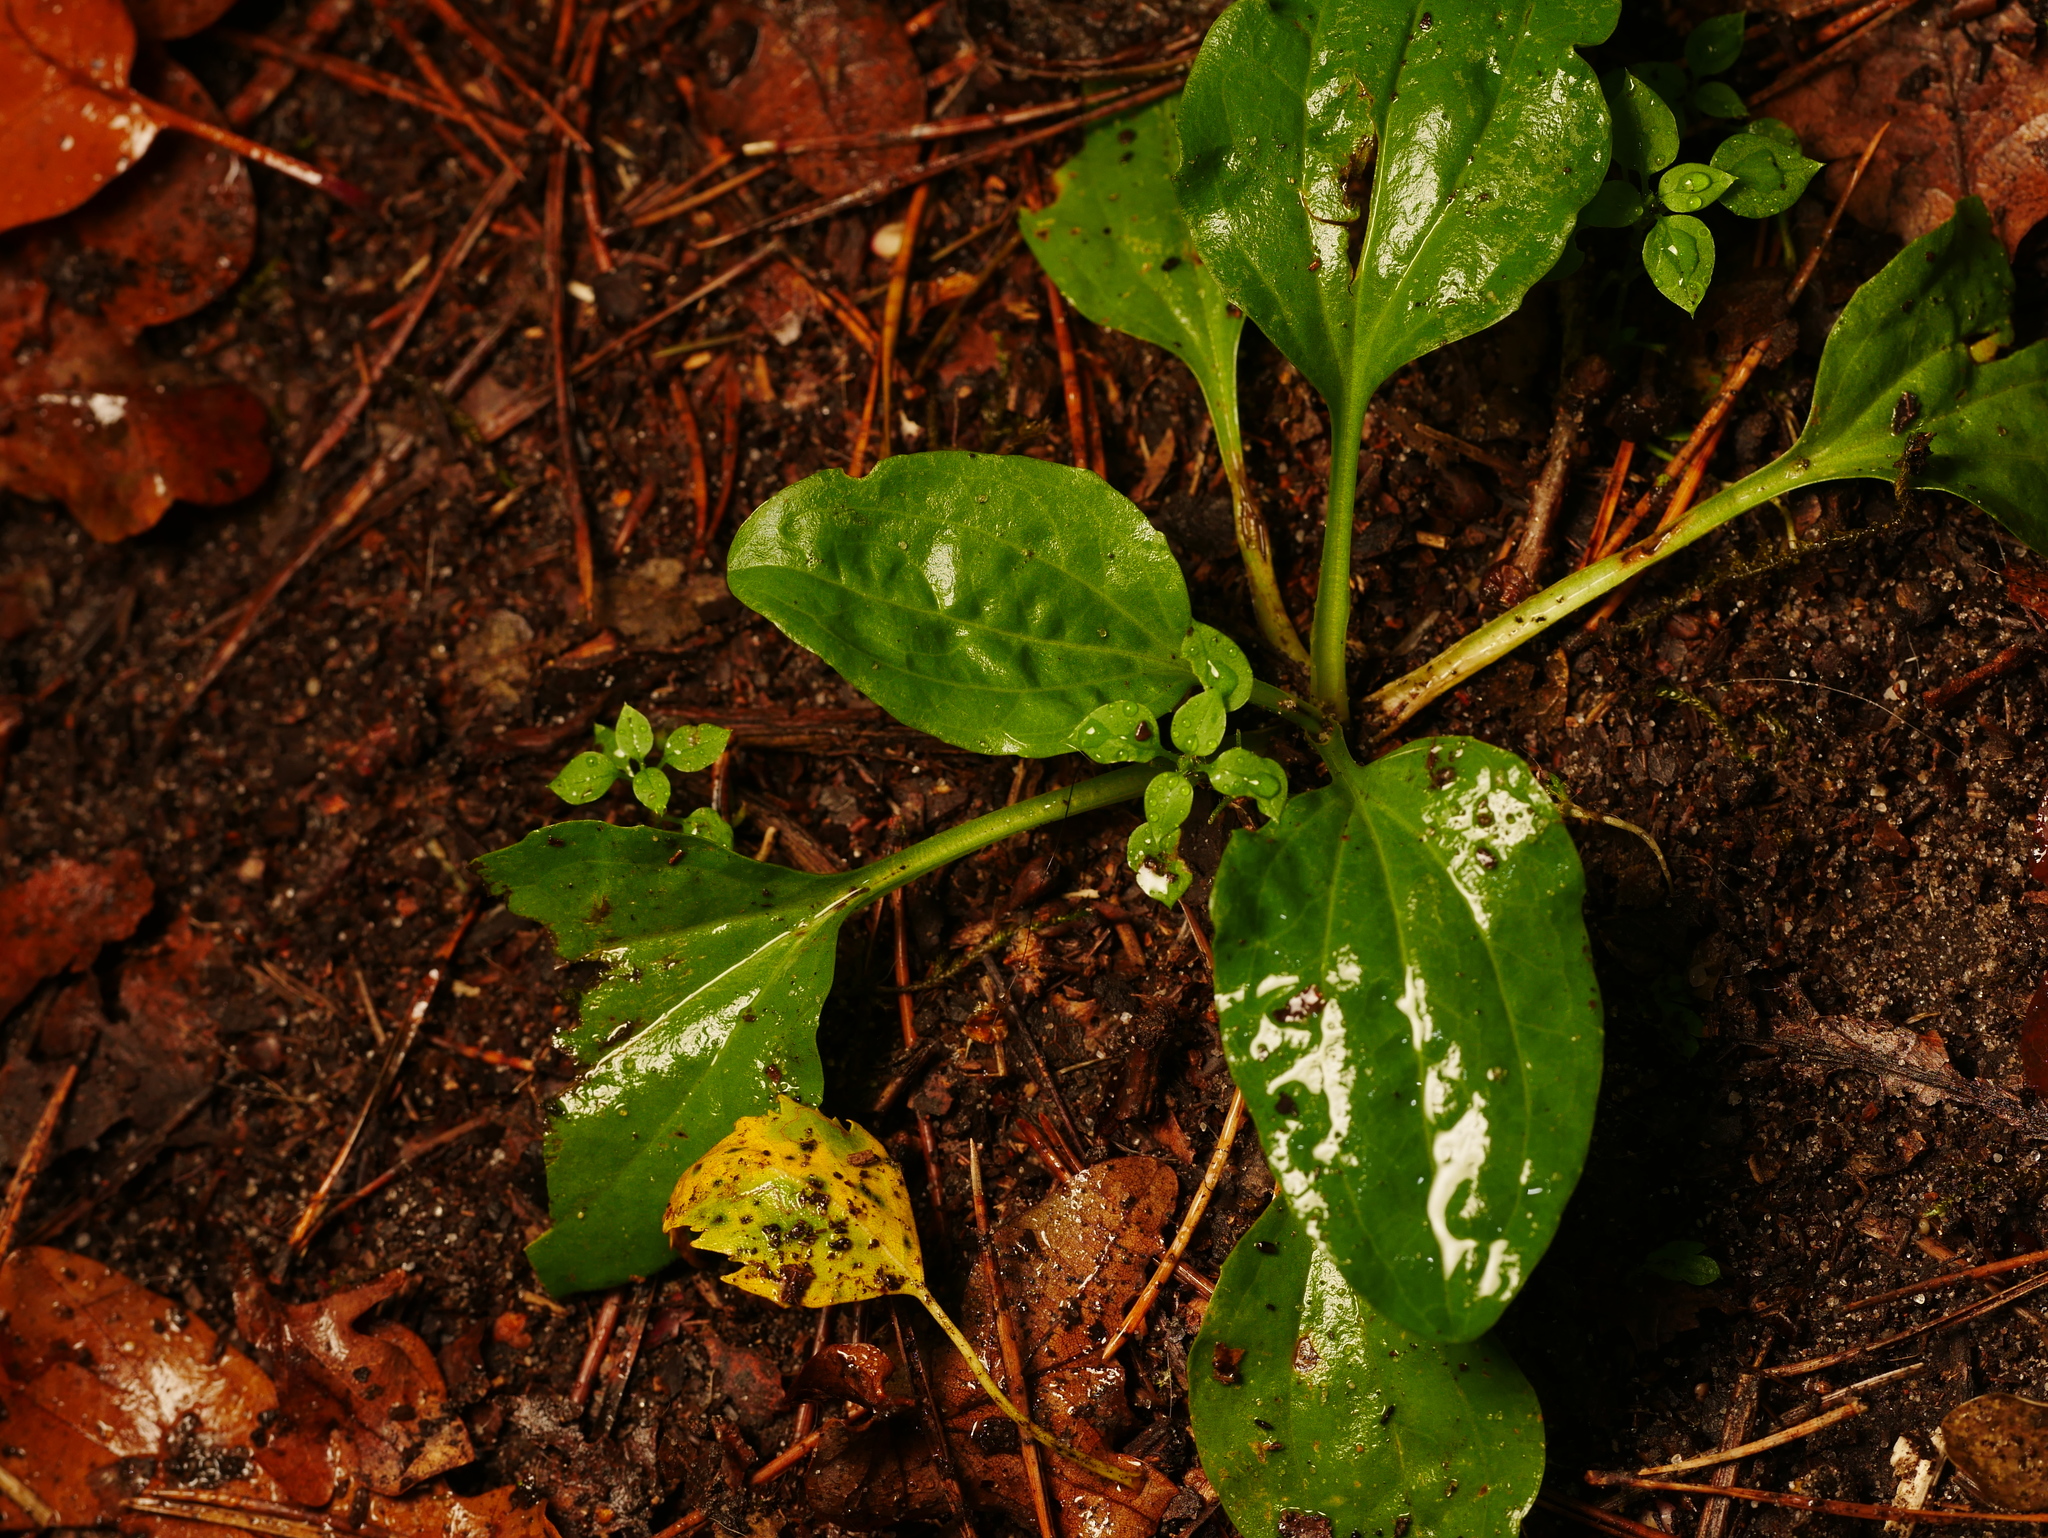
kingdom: Plantae
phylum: Tracheophyta
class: Magnoliopsida
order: Lamiales
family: Plantaginaceae
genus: Plantago
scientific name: Plantago major
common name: Common plantain
